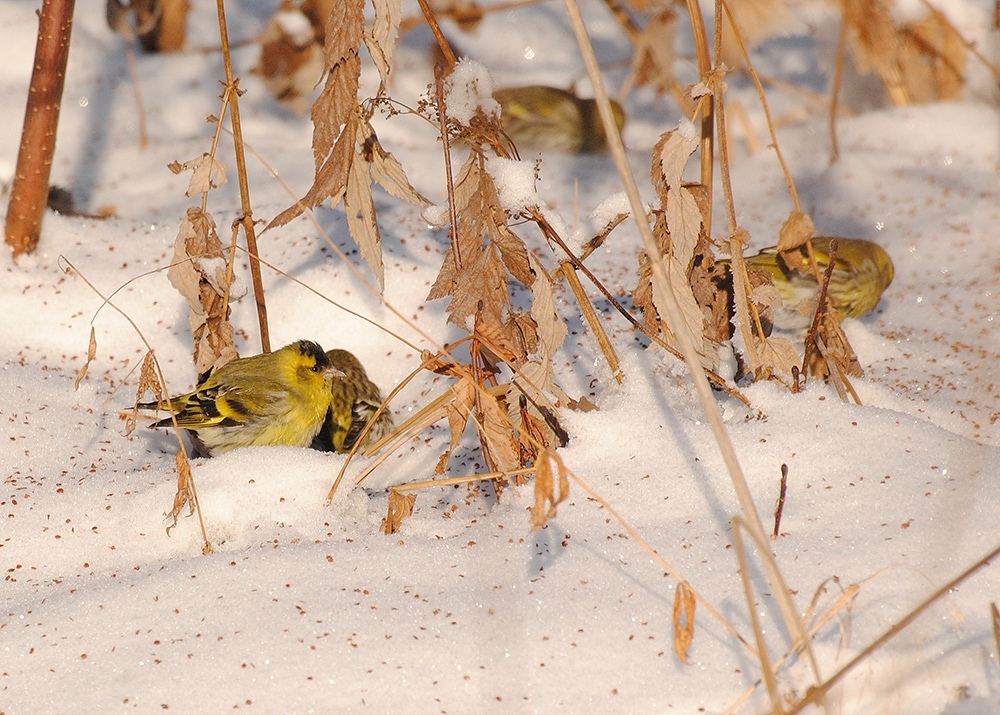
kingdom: Animalia
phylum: Chordata
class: Aves
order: Passeriformes
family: Fringillidae
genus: Spinus
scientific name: Spinus spinus
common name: Eurasian siskin
